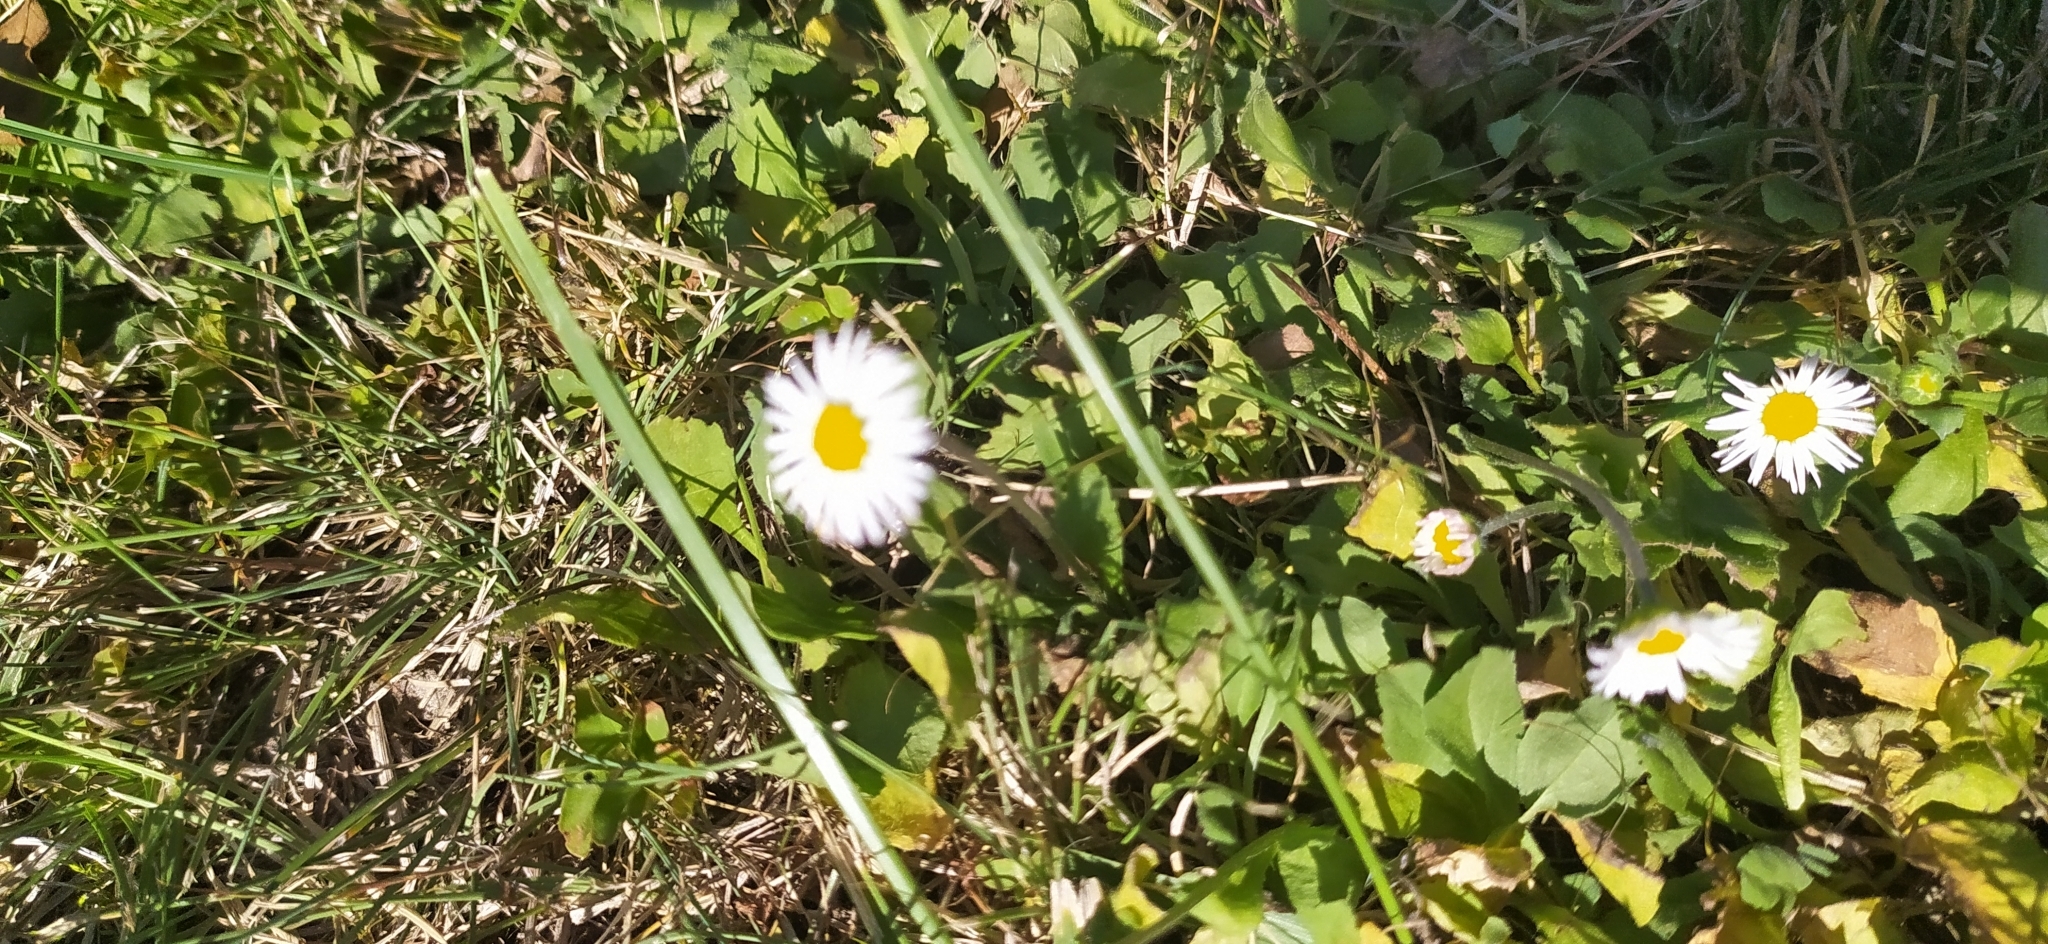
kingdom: Plantae
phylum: Tracheophyta
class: Magnoliopsida
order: Asterales
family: Asteraceae
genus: Bellis
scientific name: Bellis perennis
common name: Lawndaisy
